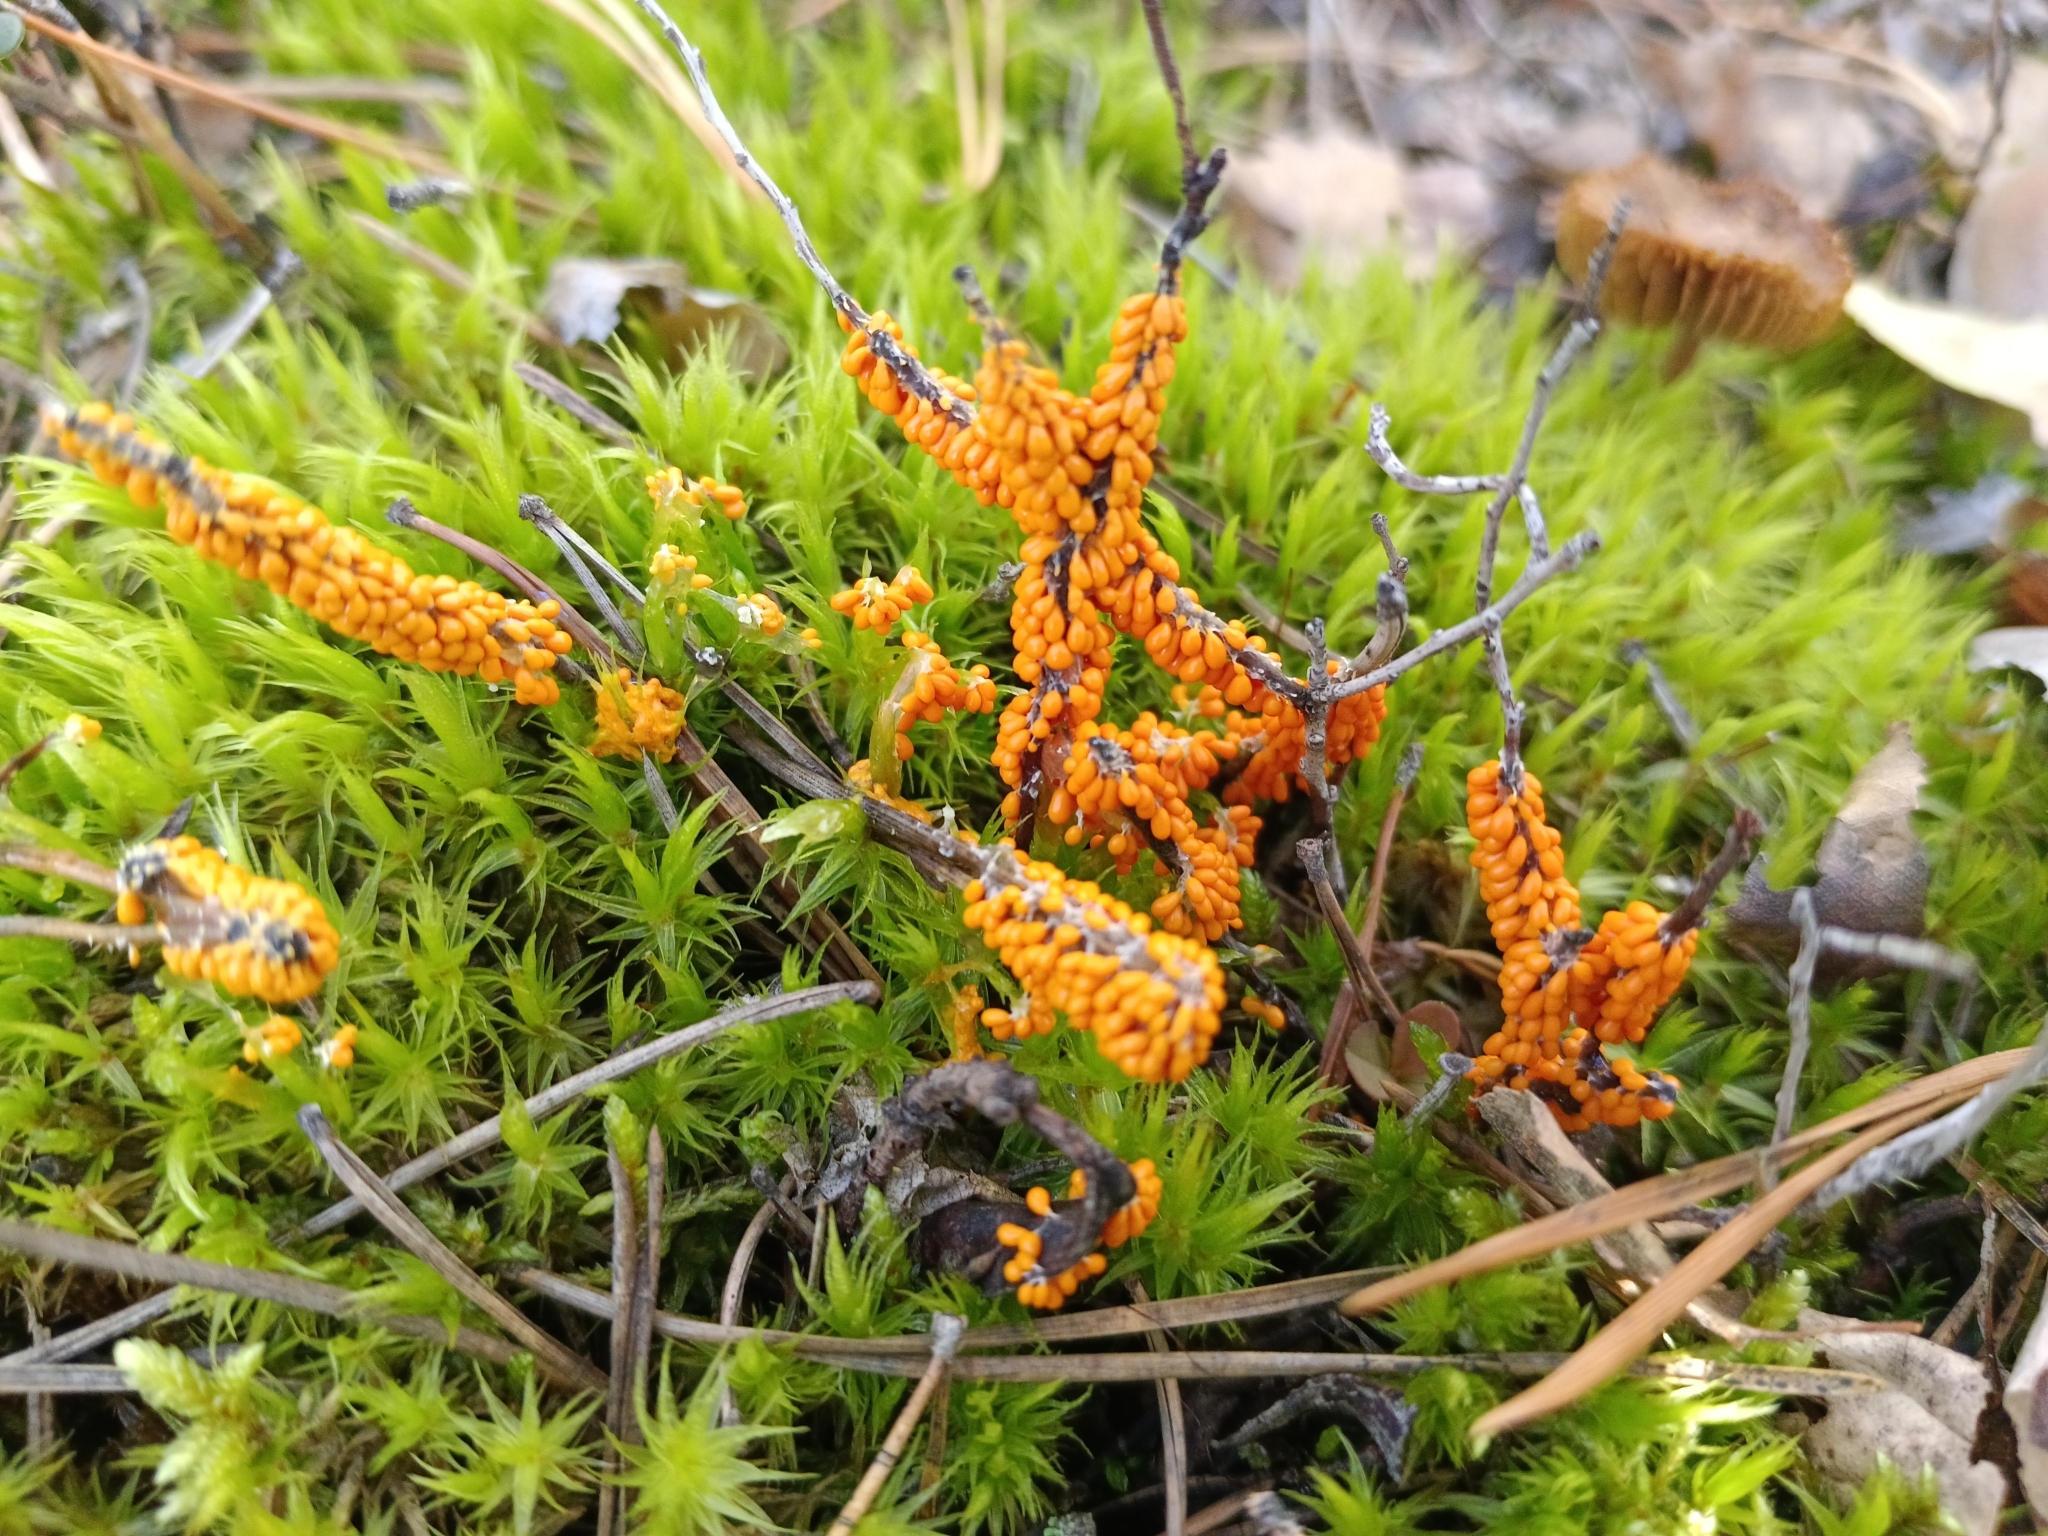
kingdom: Protozoa
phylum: Mycetozoa
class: Myxomycetes
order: Physarales
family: Physaraceae
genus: Leocarpus
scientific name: Leocarpus fragilis
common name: Insect-egg slime
